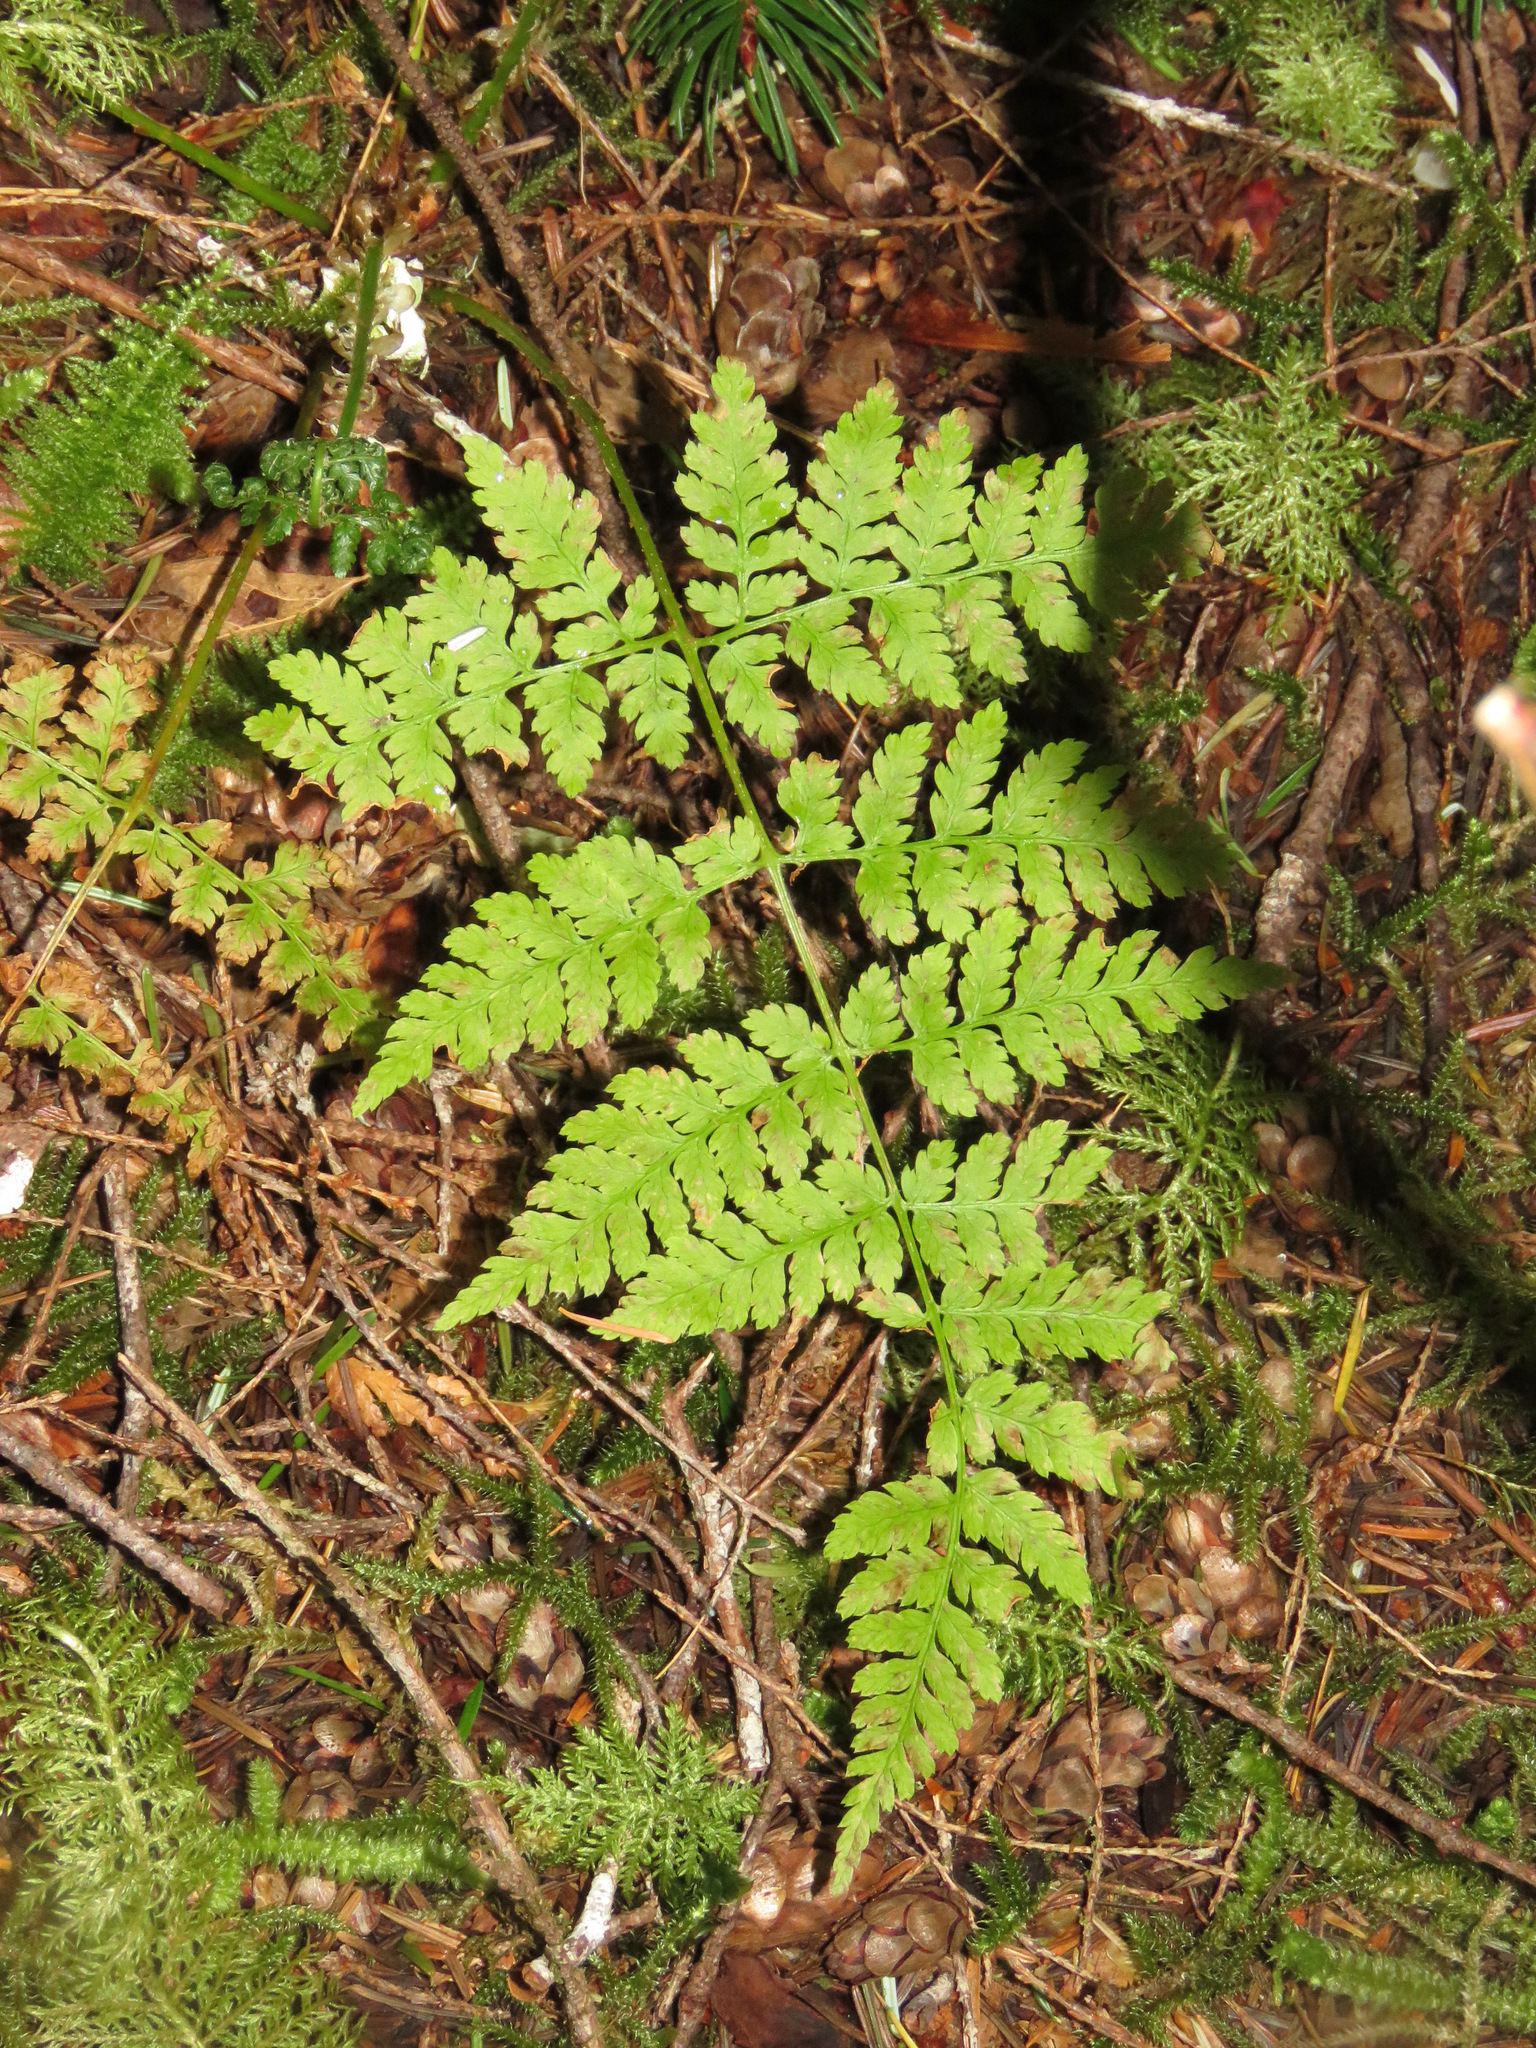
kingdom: Plantae
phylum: Tracheophyta
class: Polypodiopsida
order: Polypodiales
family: Dryopteridaceae
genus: Dryopteris
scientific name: Dryopteris expansa
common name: Northern buckler fern
